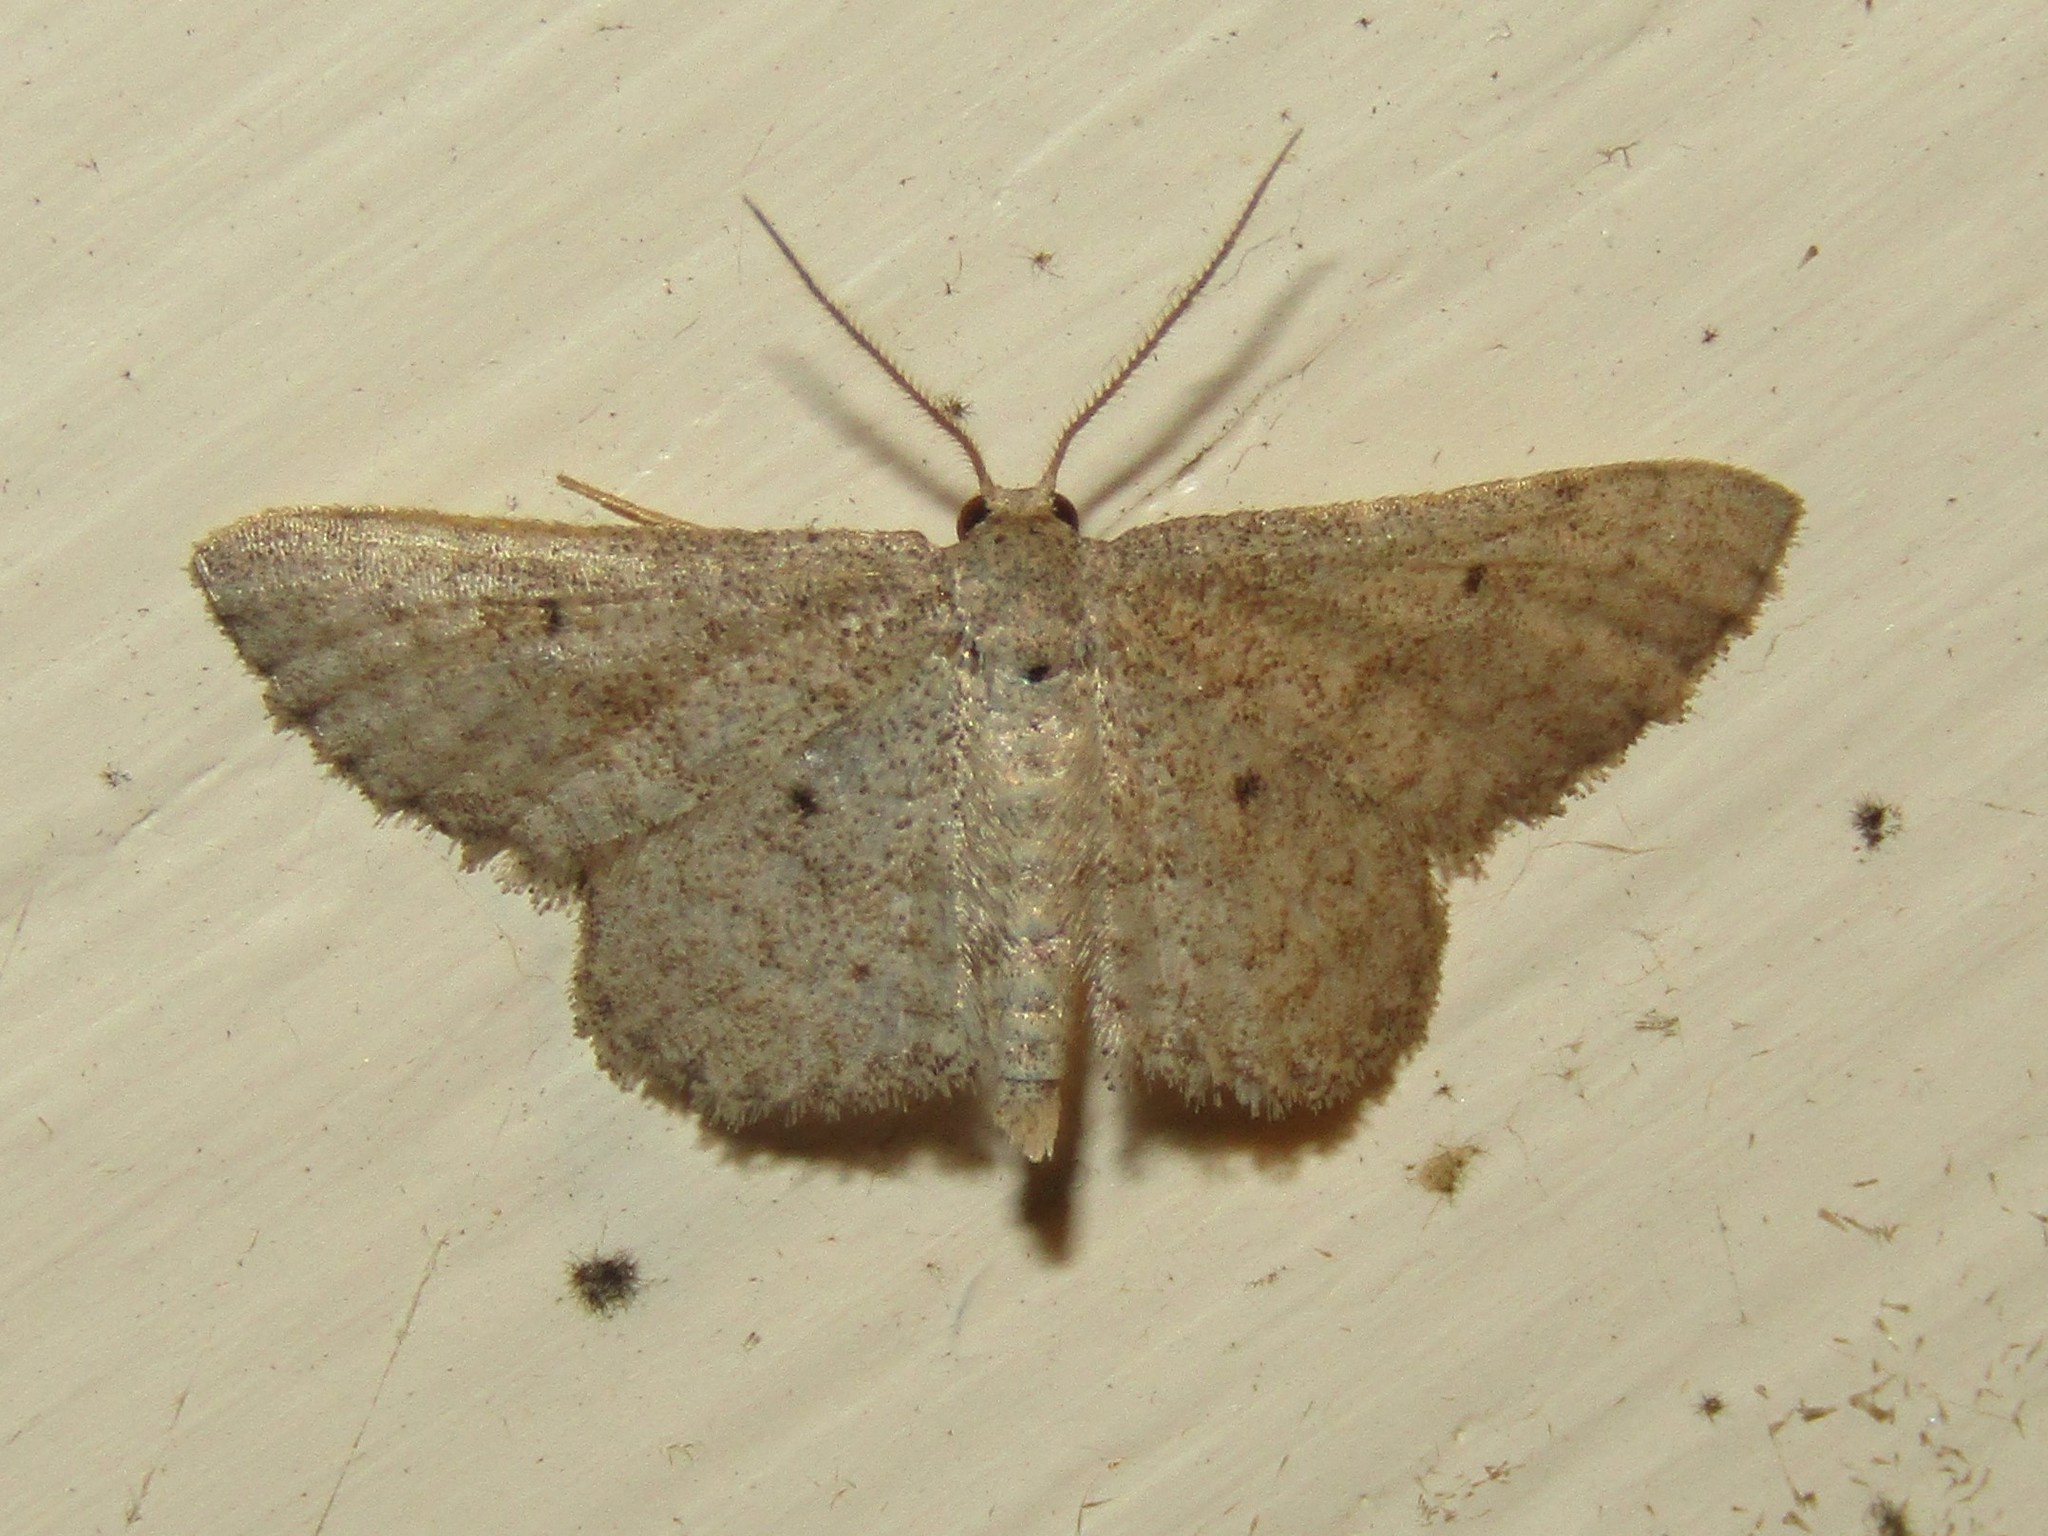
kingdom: Animalia
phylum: Arthropoda
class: Insecta
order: Lepidoptera
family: Geometridae
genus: Lobocleta
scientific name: Lobocleta ossularia
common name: Drab brown wave
